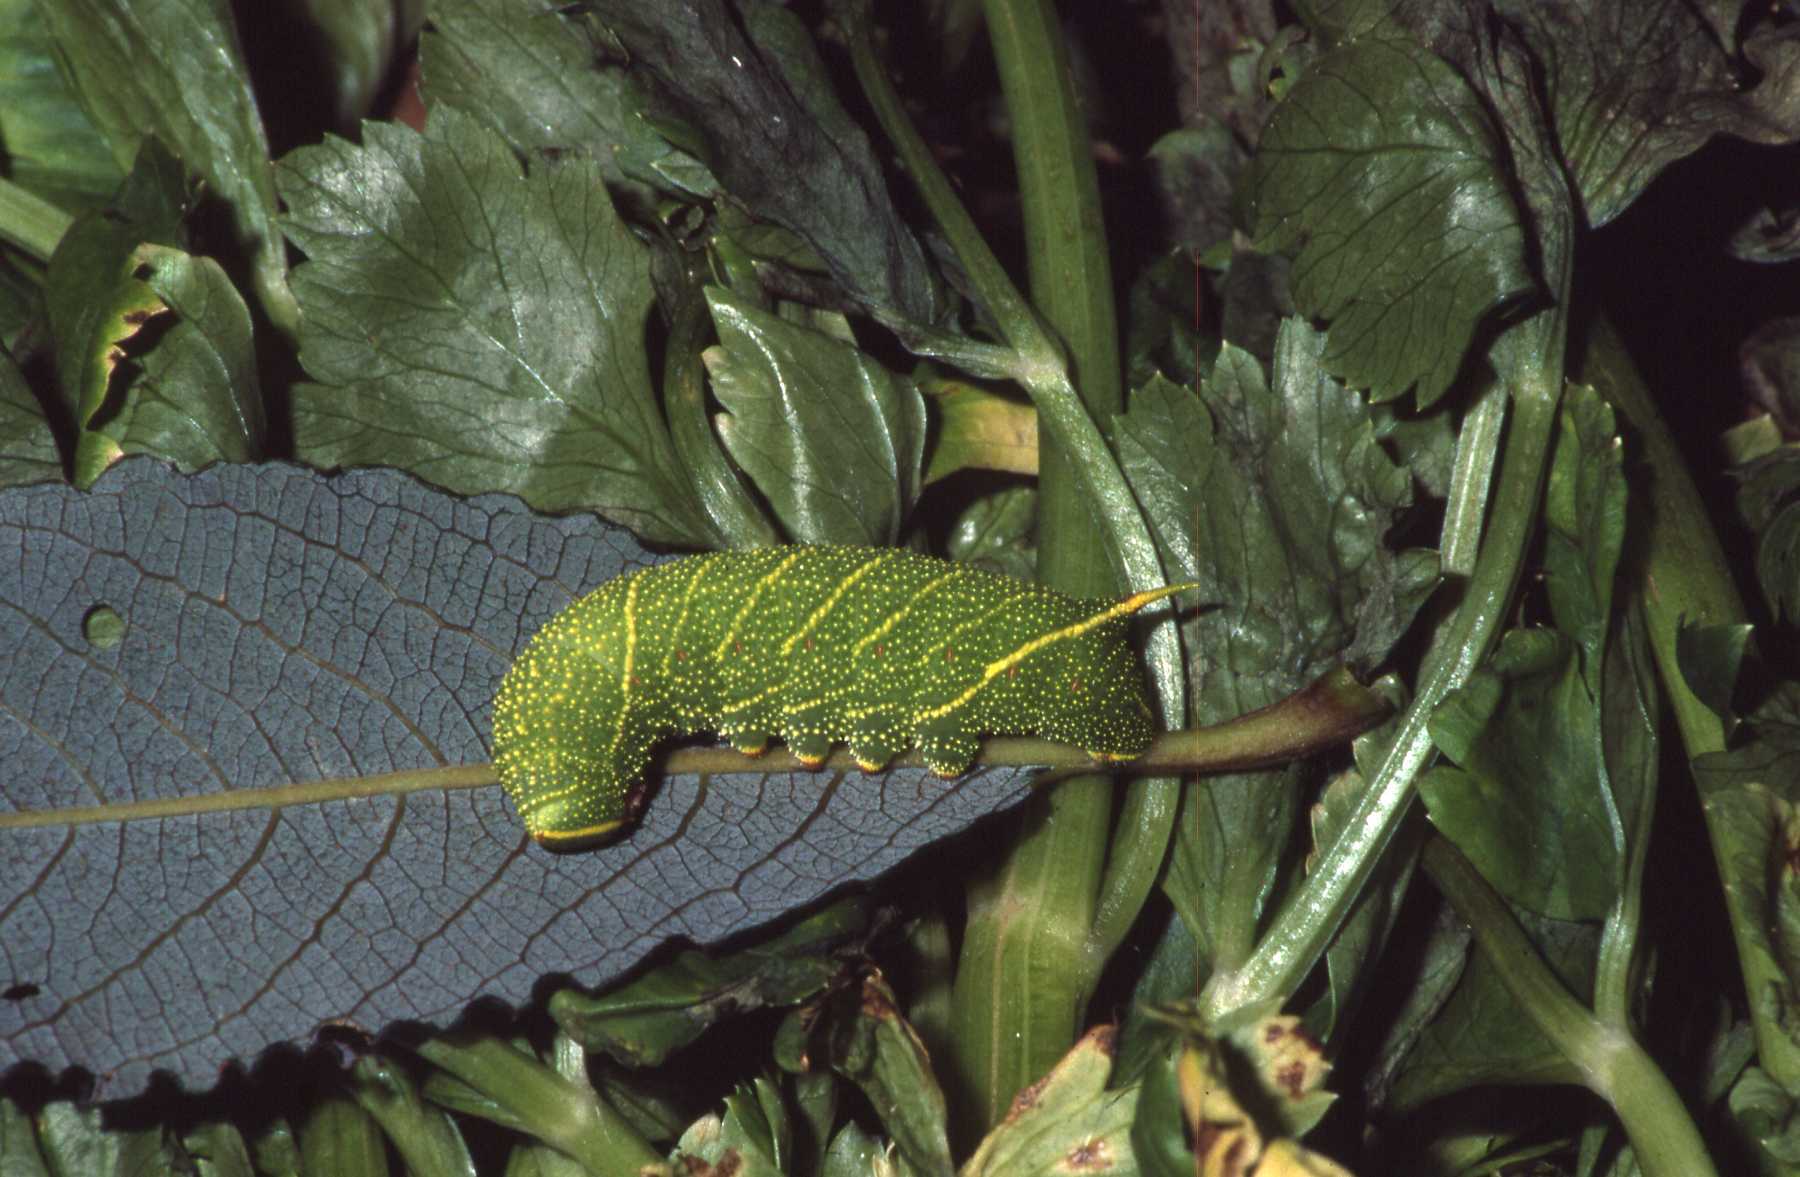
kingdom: Animalia
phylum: Arthropoda
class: Insecta
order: Lepidoptera
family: Sphingidae
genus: Laothoe
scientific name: Laothoe populi
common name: Poplar hawk-moth
